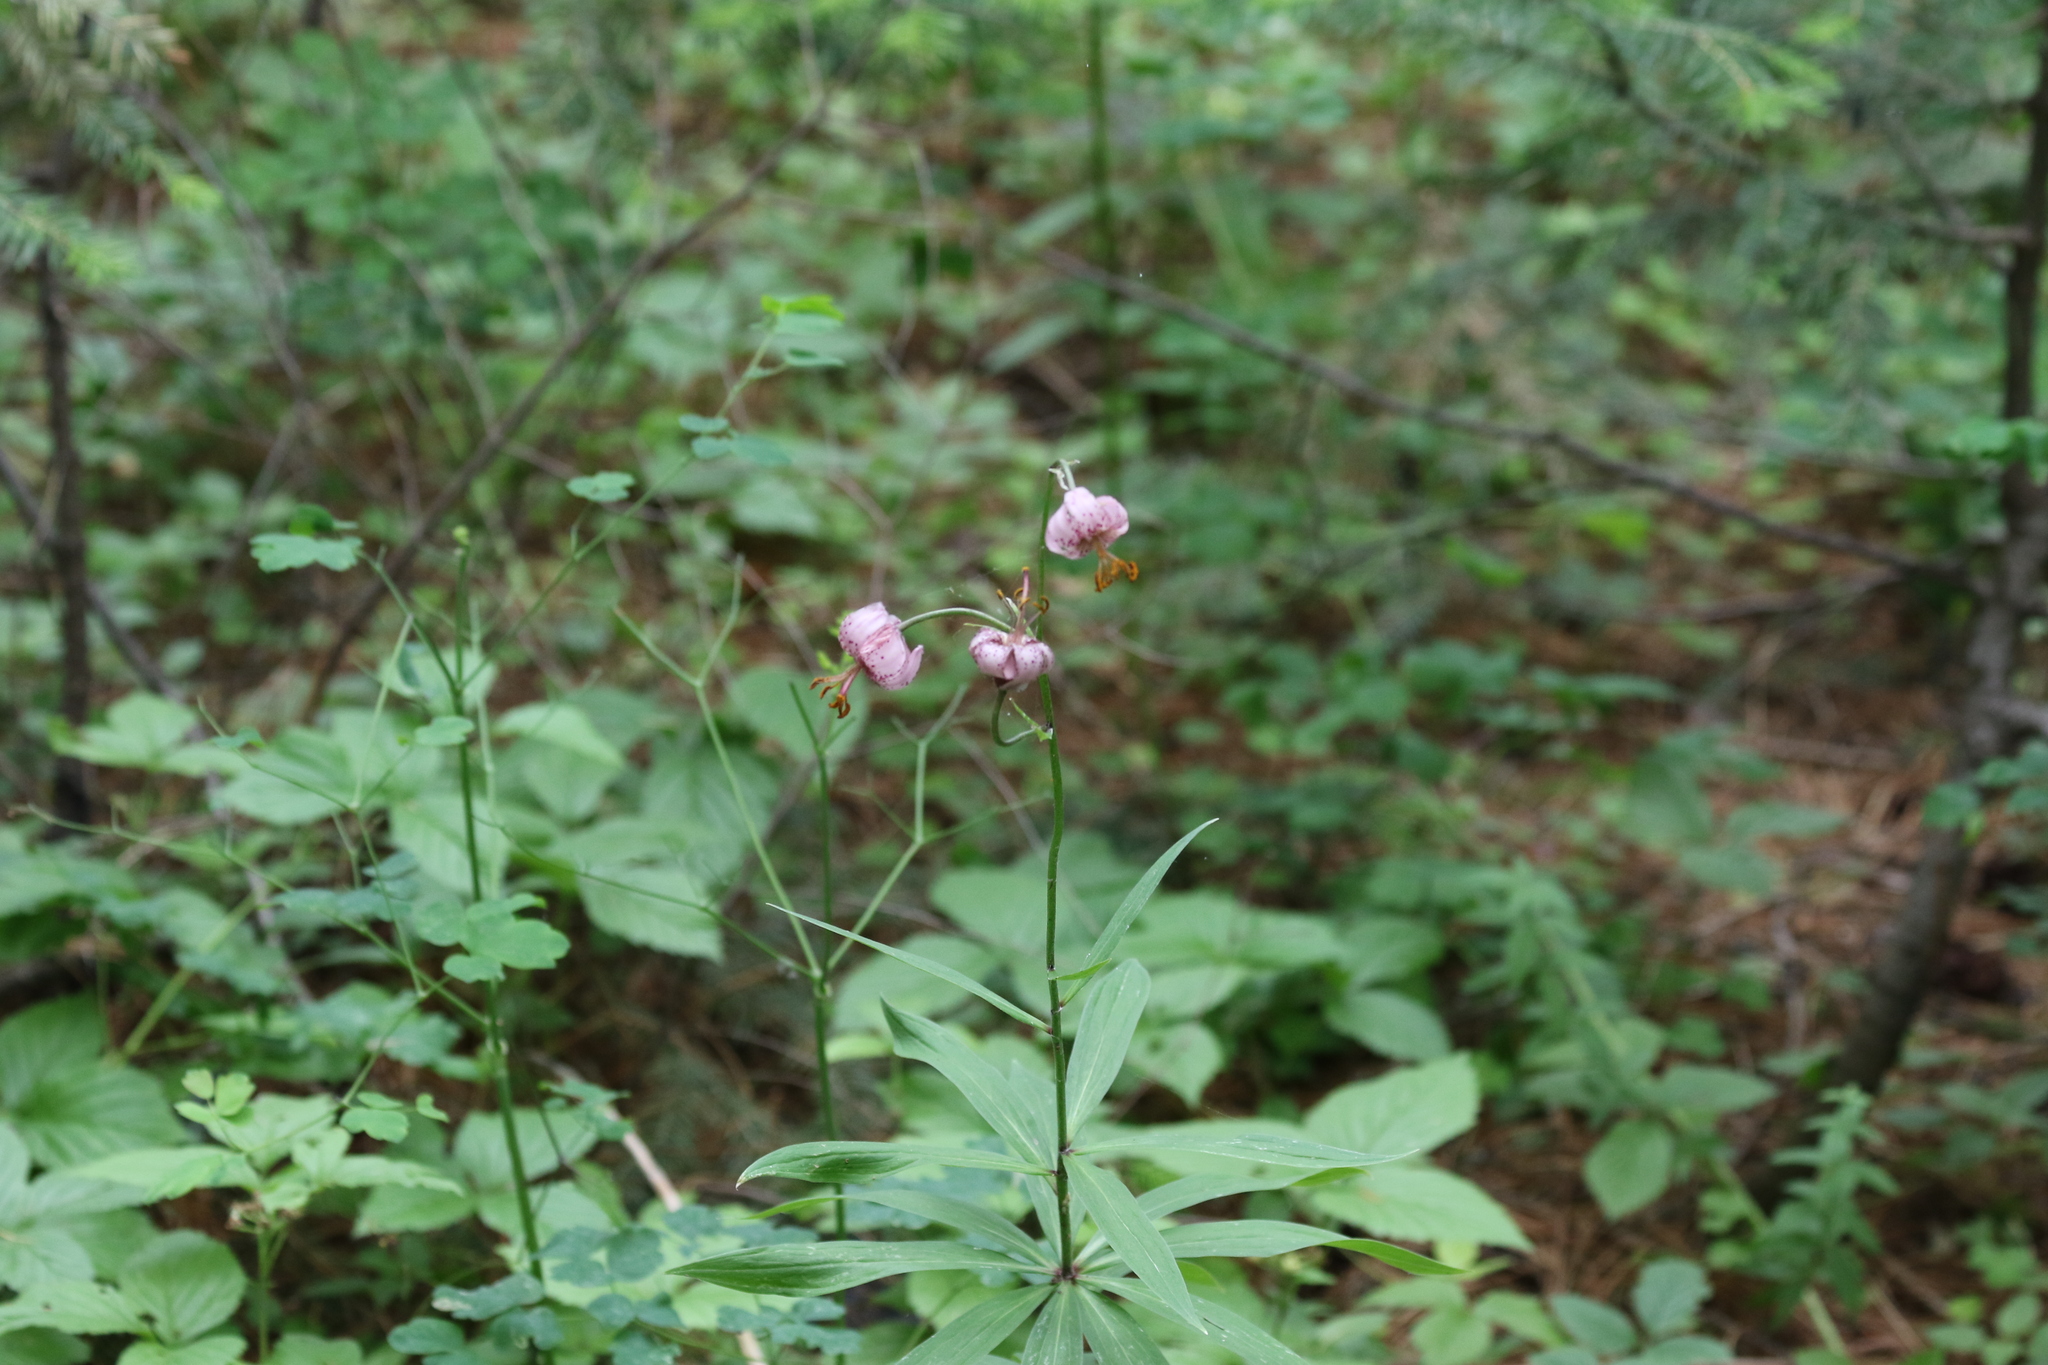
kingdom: Plantae
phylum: Tracheophyta
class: Liliopsida
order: Liliales
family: Liliaceae
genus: Lilium
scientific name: Lilium martagon
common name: Martagon lily
